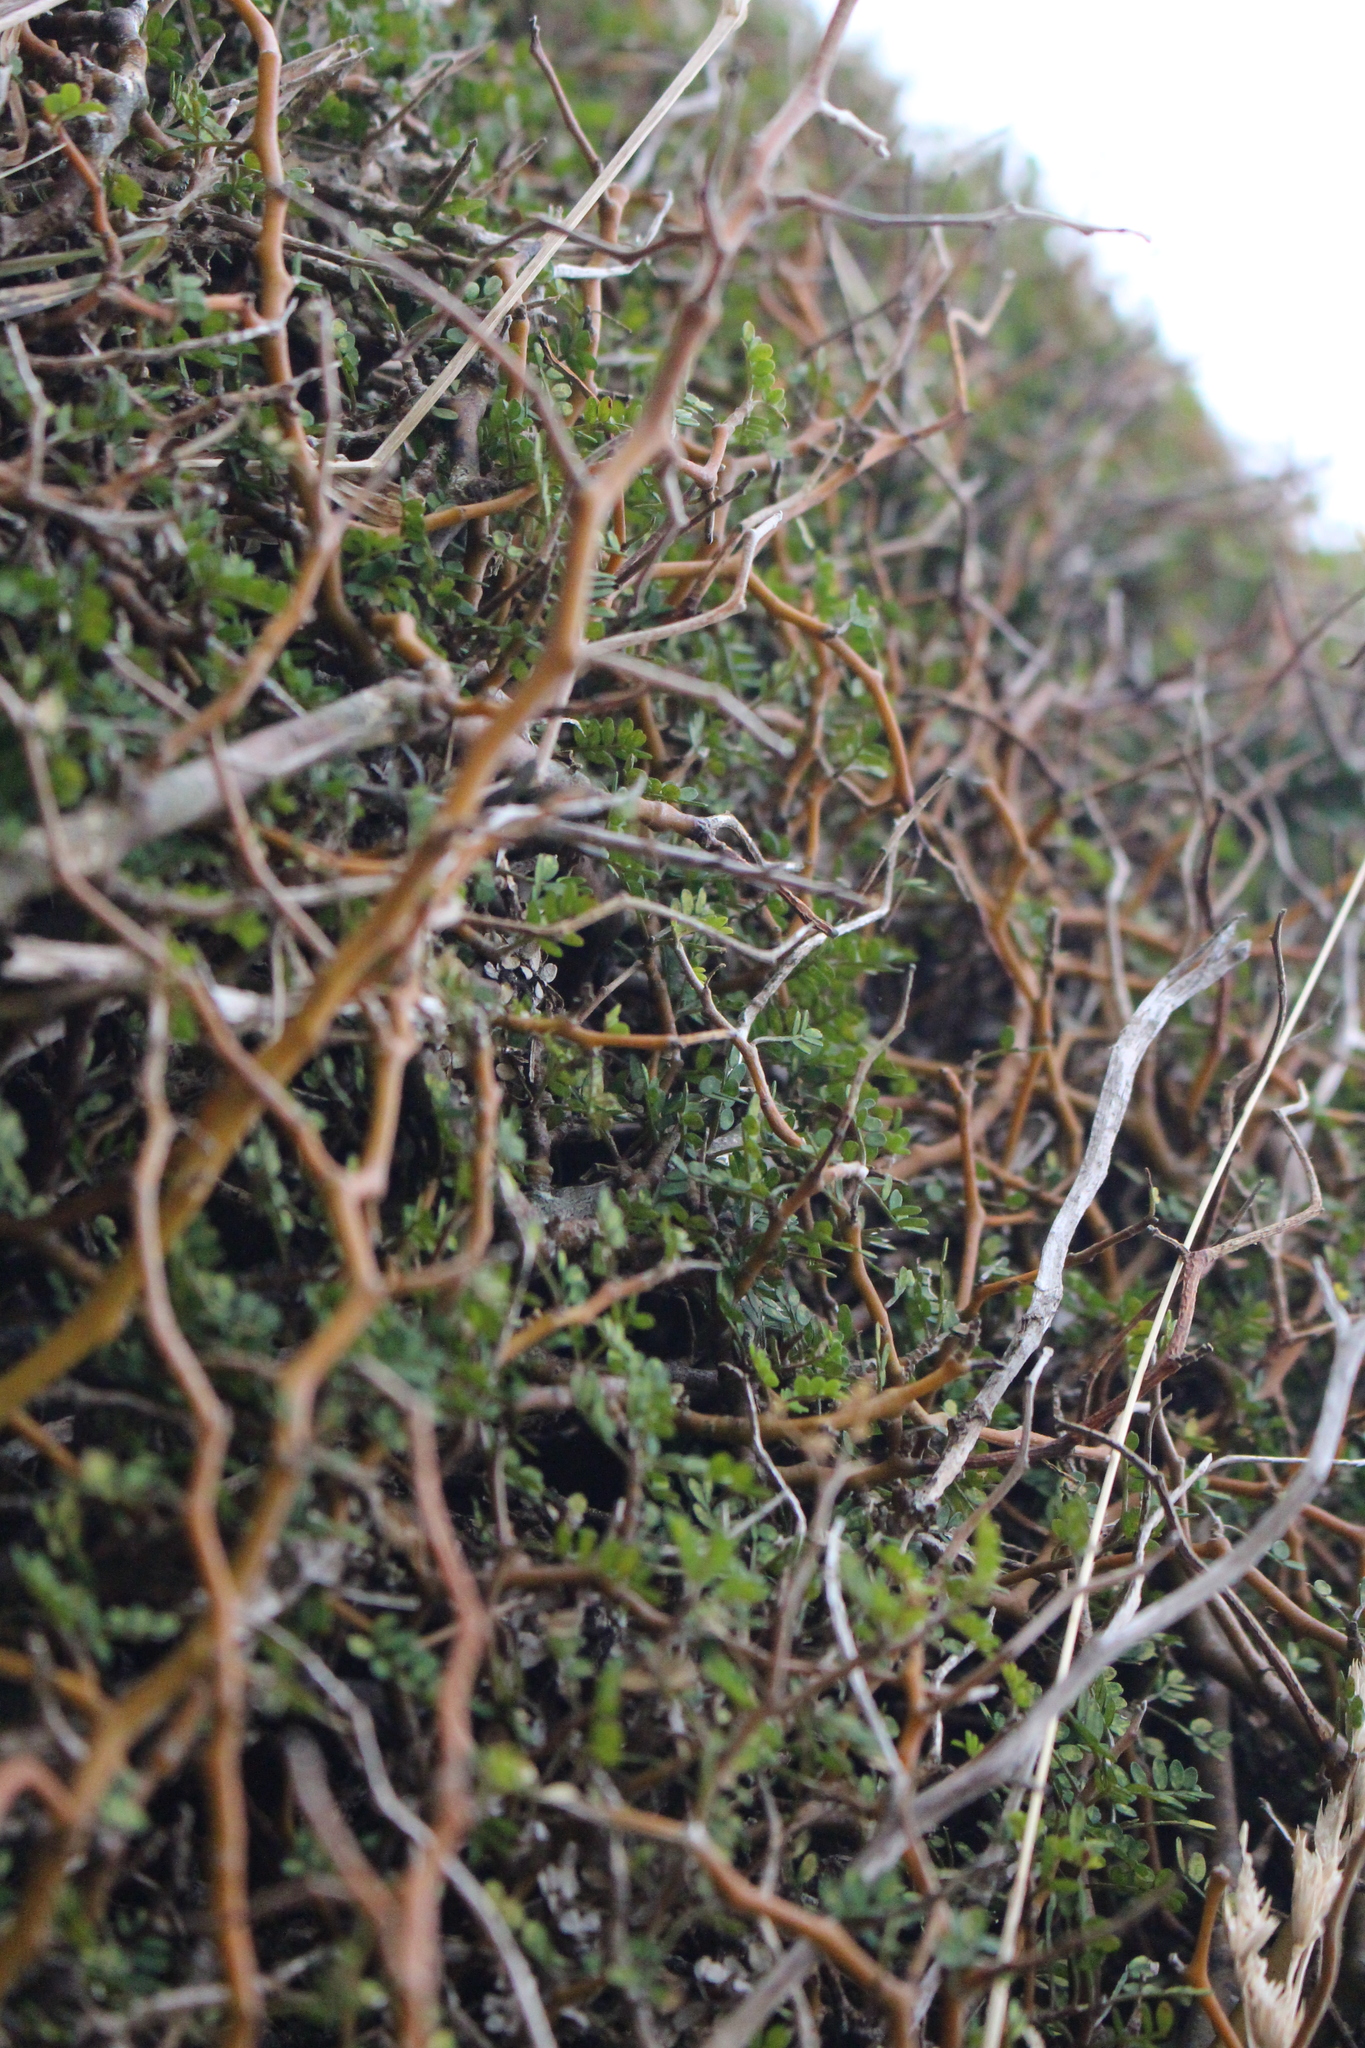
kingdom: Plantae
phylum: Tracheophyta
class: Magnoliopsida
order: Fabales
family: Fabaceae
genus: Sophora
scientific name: Sophora prostrata
